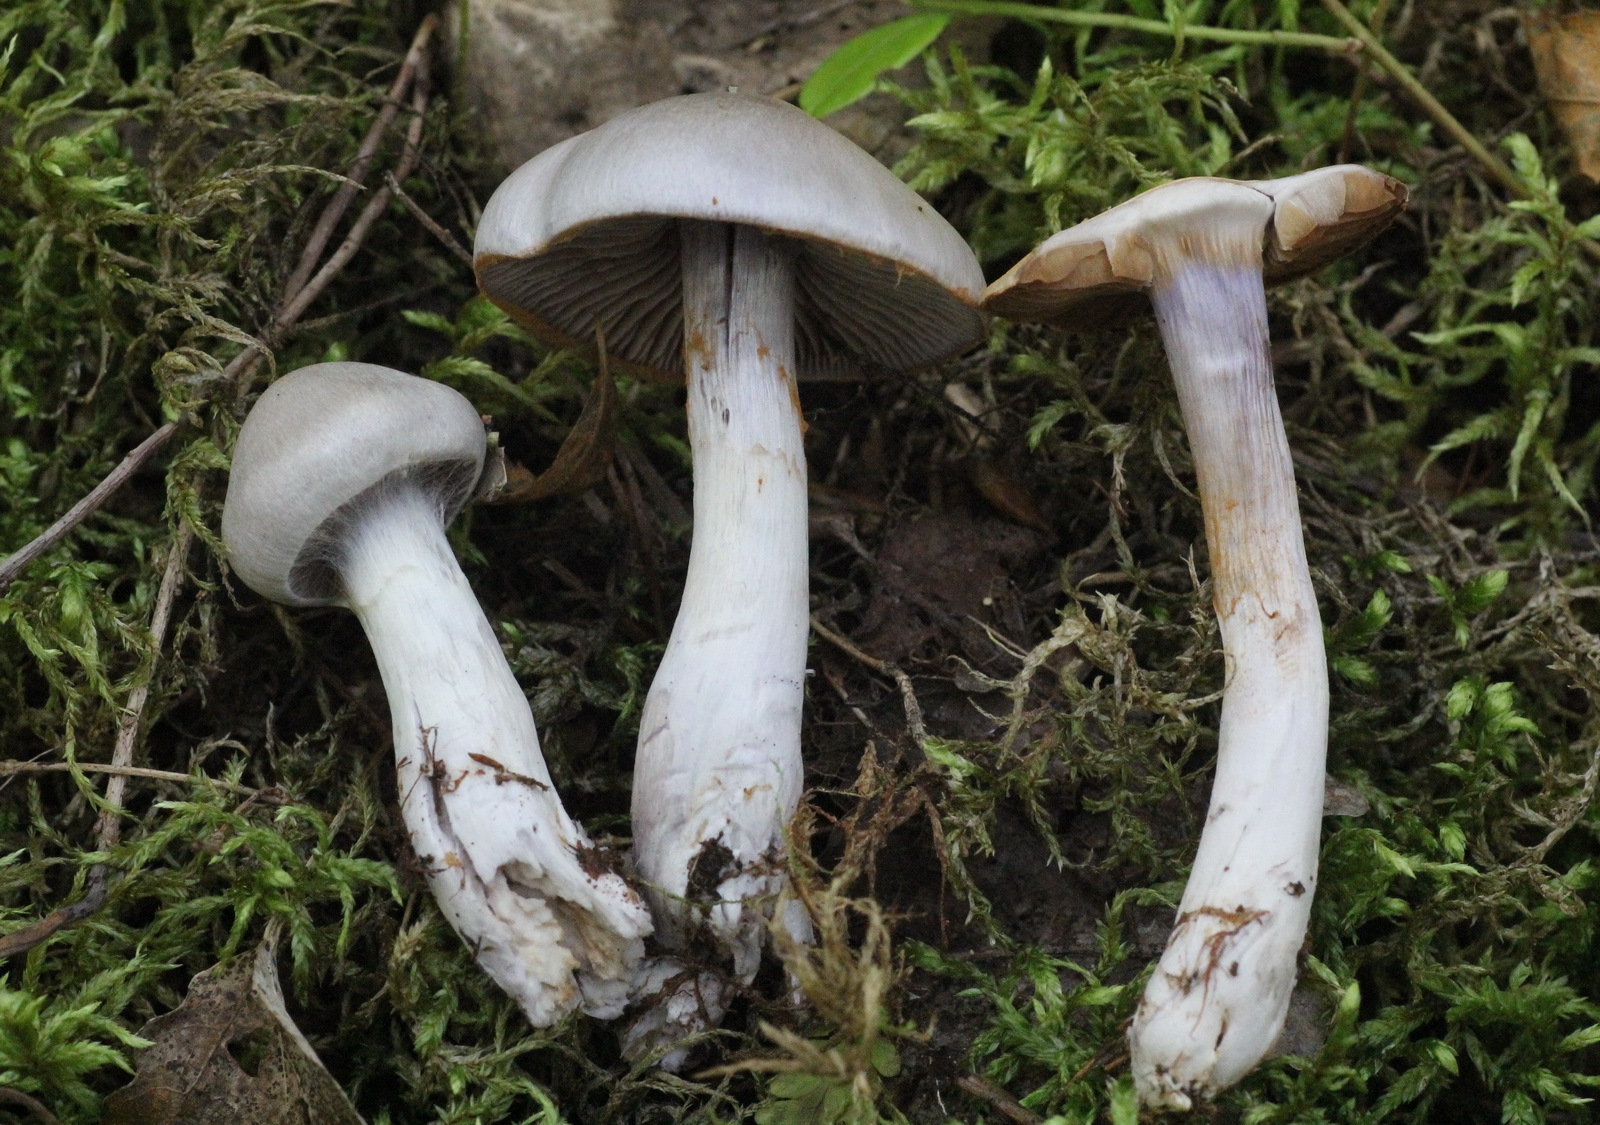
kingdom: Fungi
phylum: Basidiomycota
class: Agaricomycetes
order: Agaricales
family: Cortinariaceae
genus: Thaxterogaster
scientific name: Thaxterogaster porphyropus
